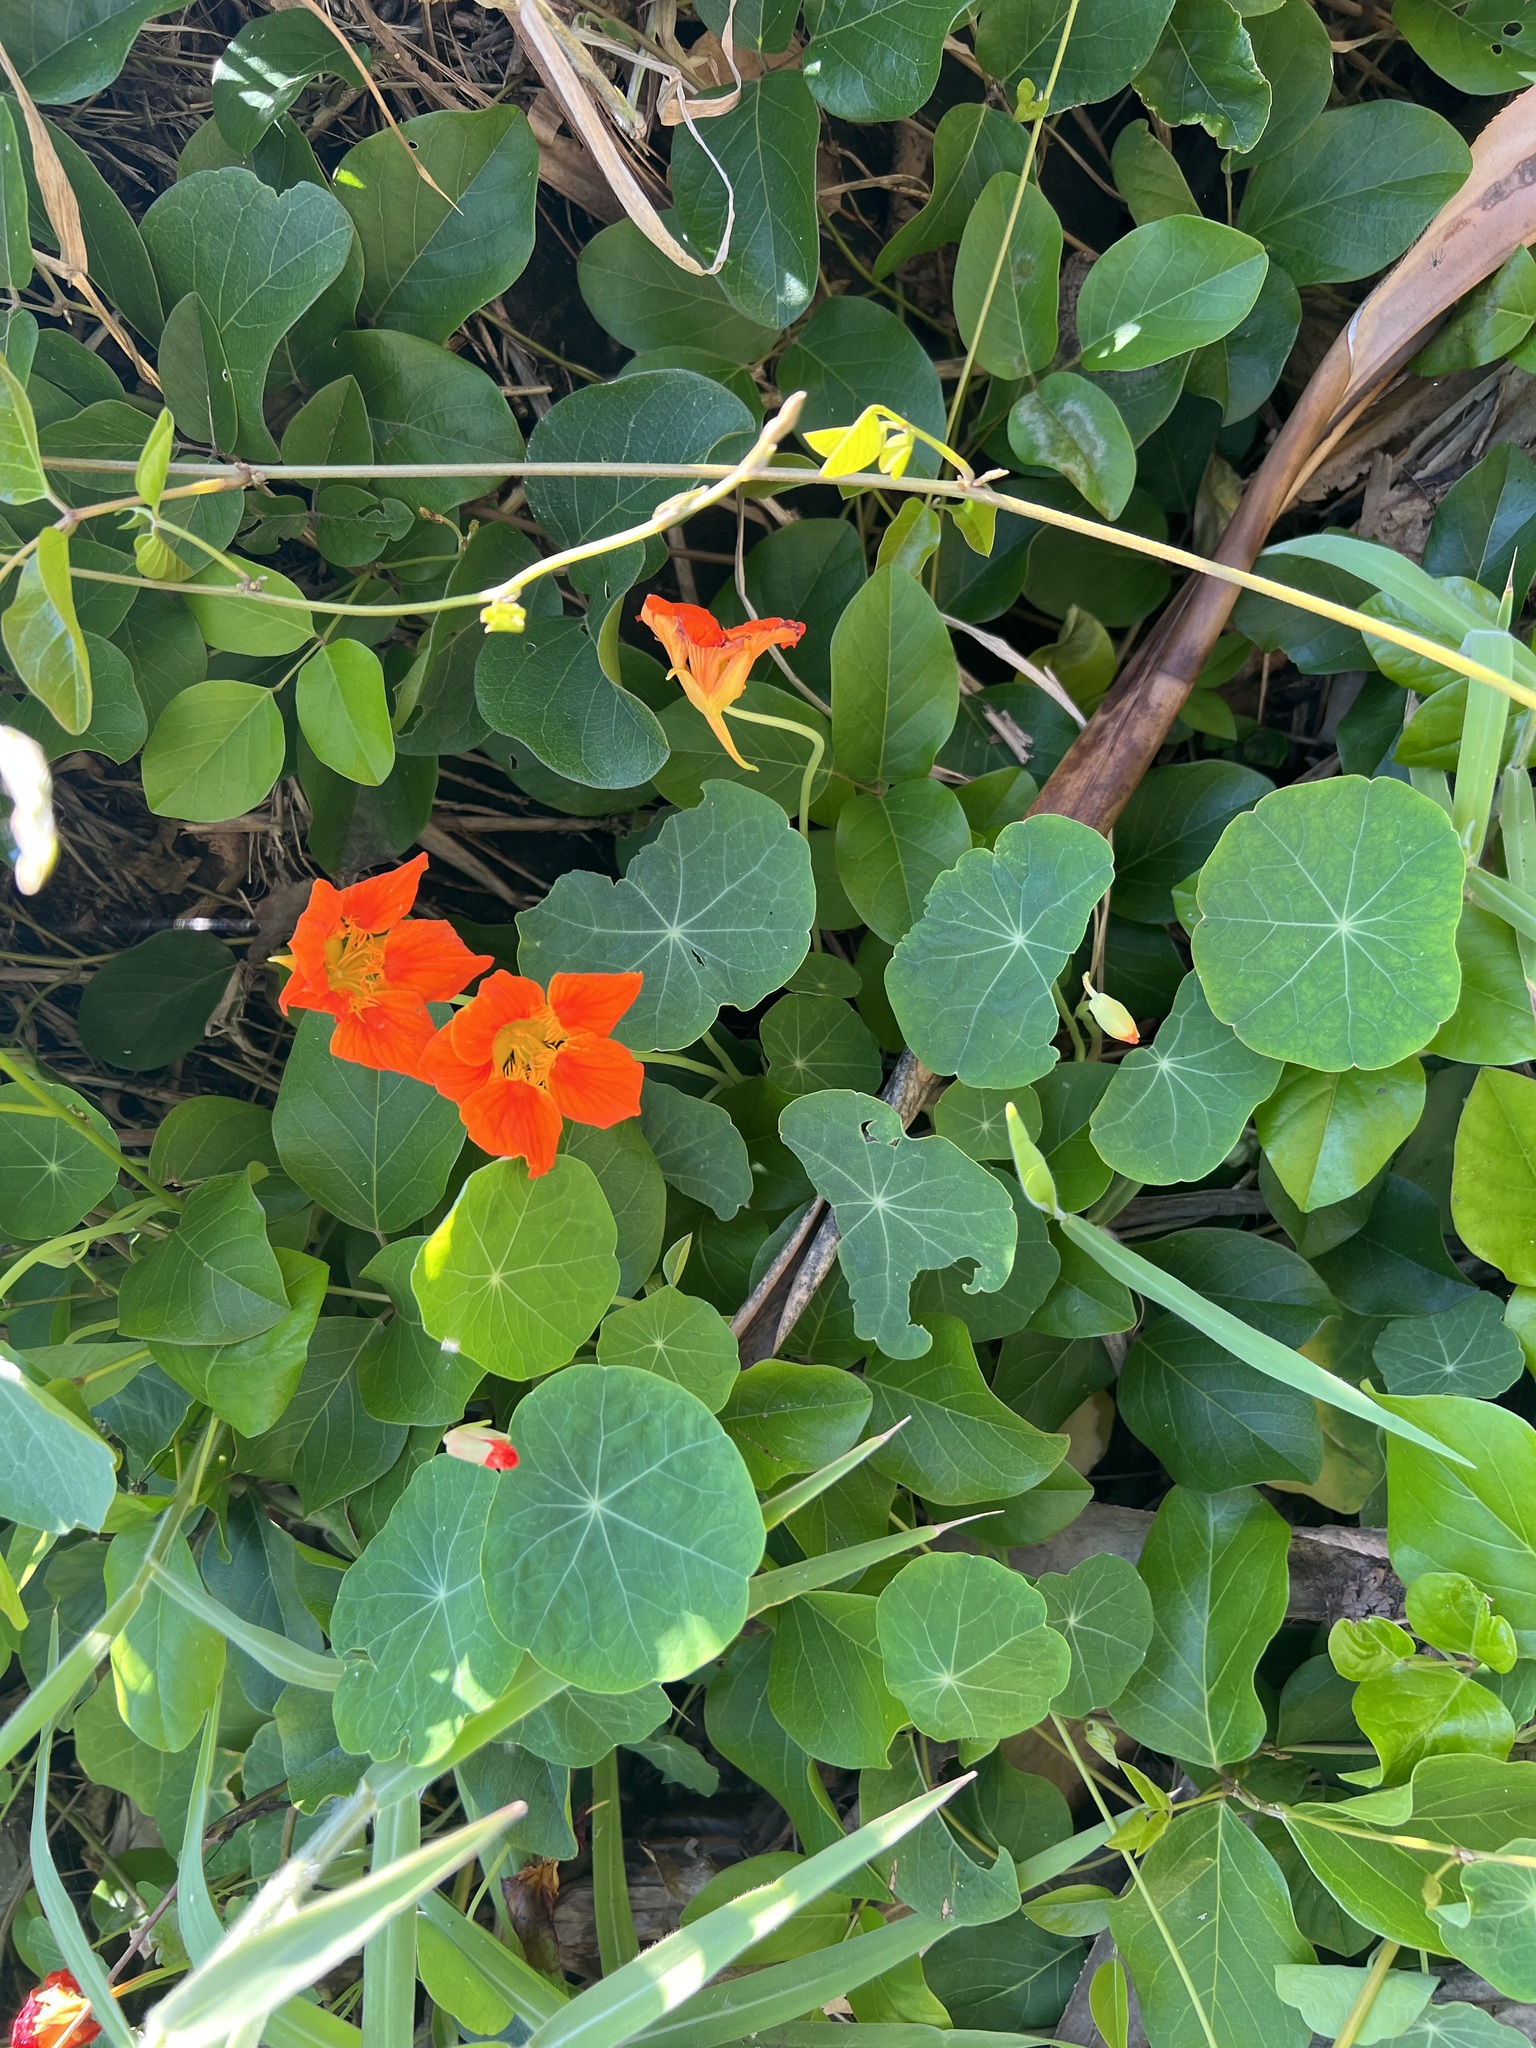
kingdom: Plantae
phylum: Tracheophyta
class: Magnoliopsida
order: Brassicales
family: Tropaeolaceae
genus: Tropaeolum
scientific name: Tropaeolum majus
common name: Nasturtium
